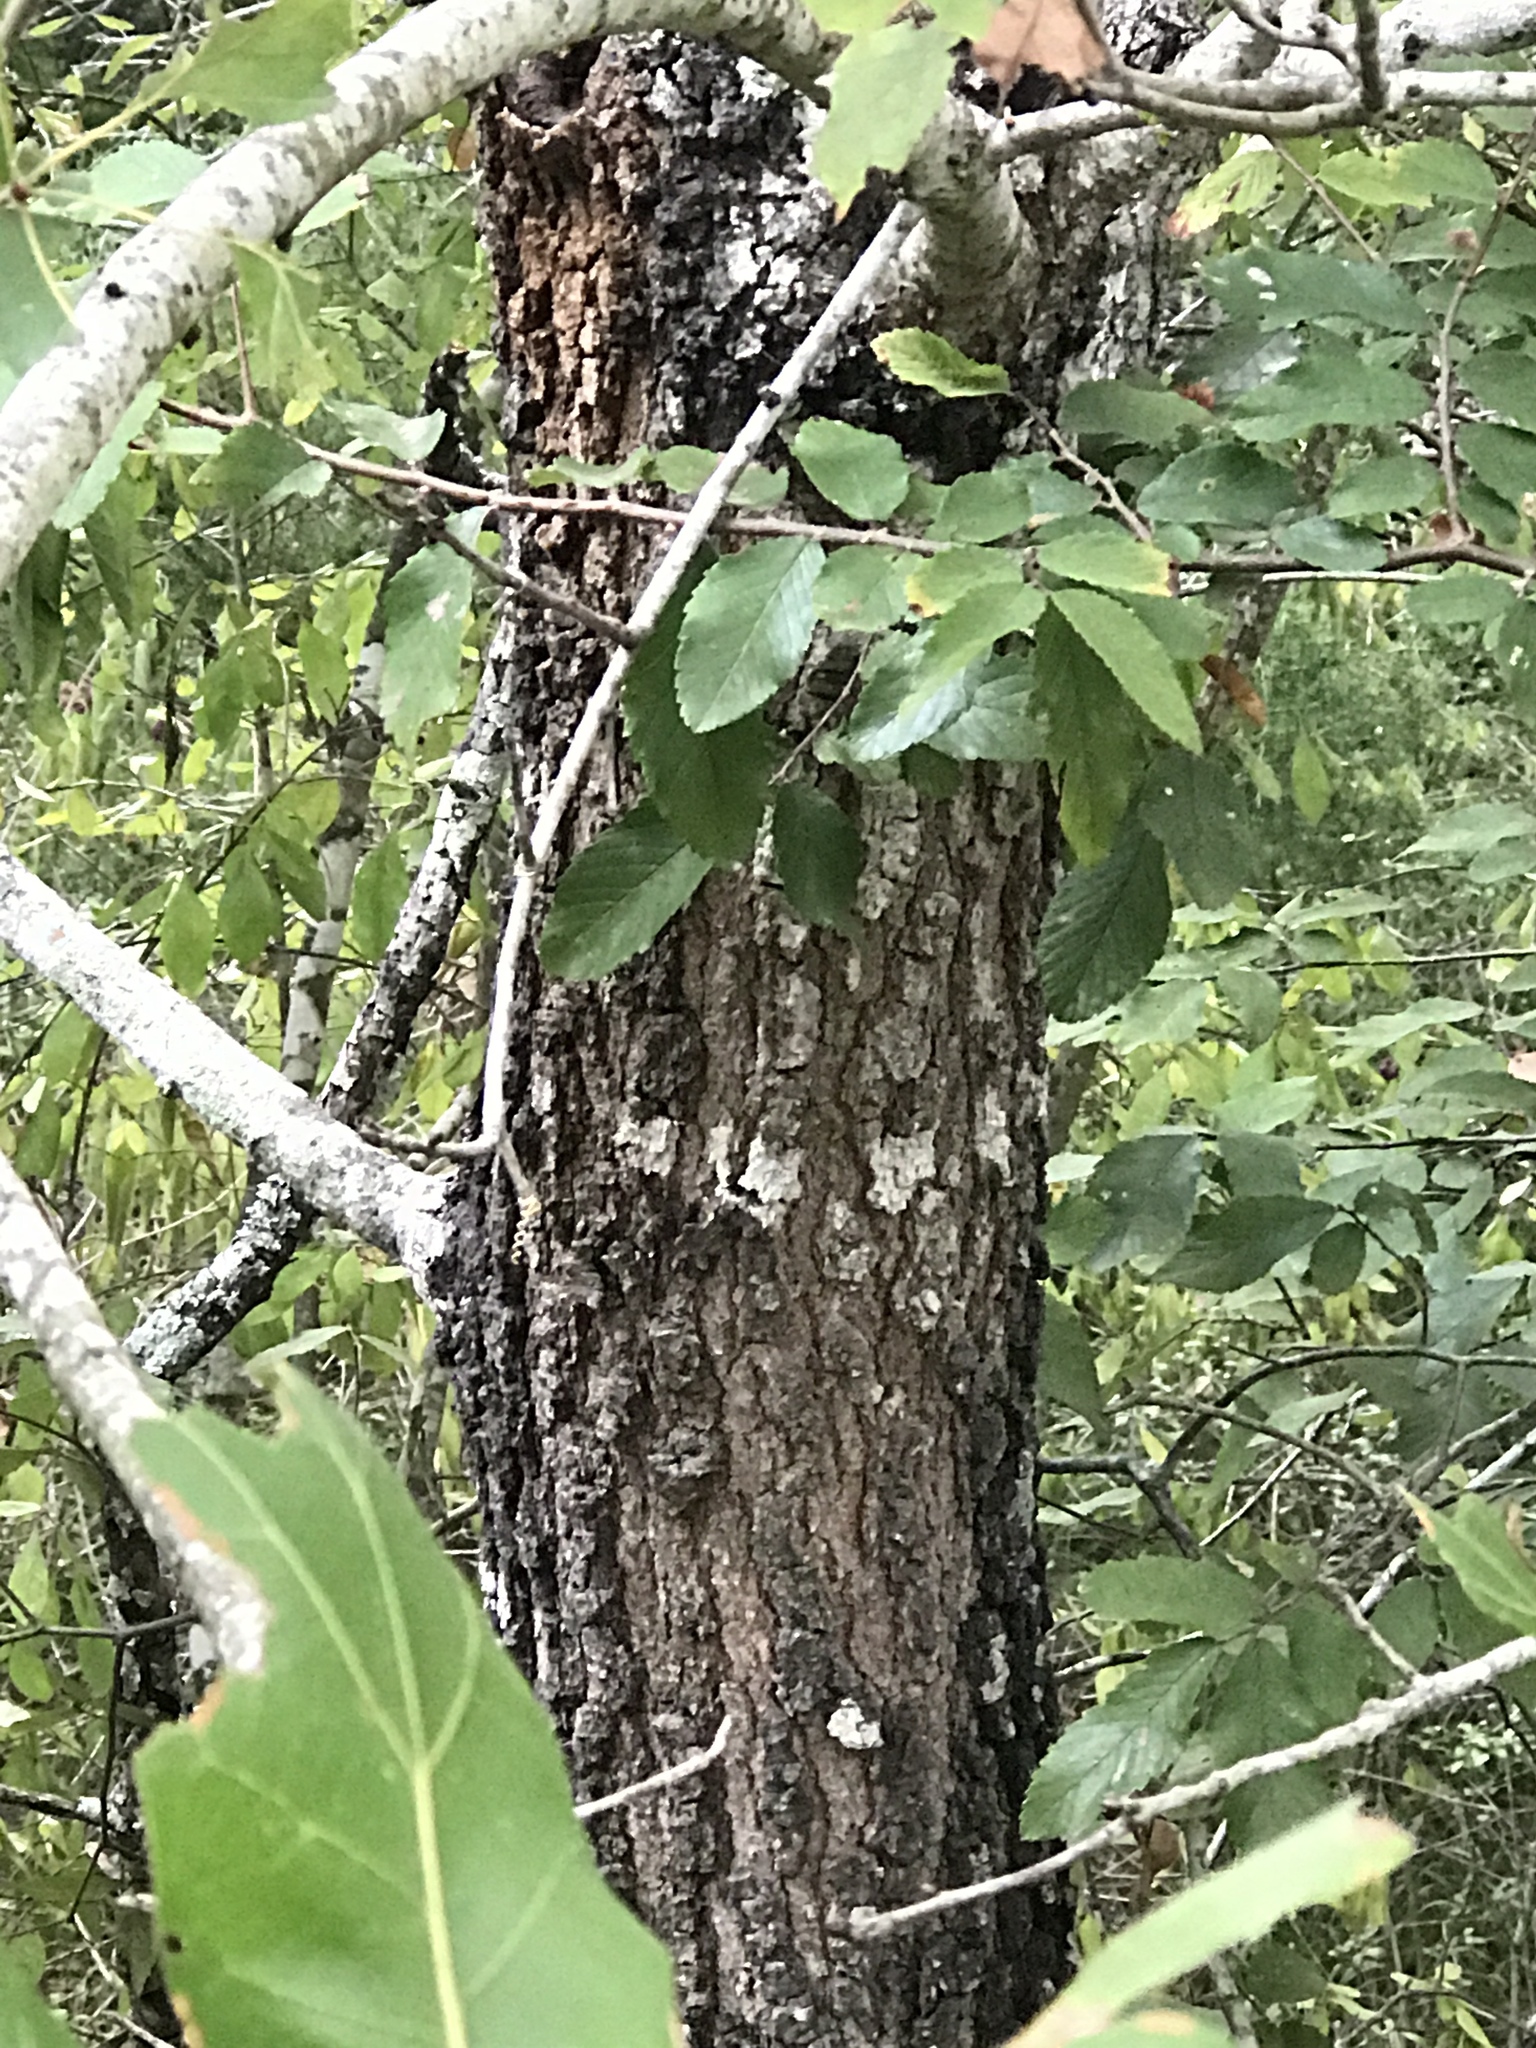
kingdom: Plantae
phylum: Tracheophyta
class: Magnoliopsida
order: Fagales
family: Fagaceae
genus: Quercus
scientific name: Quercus marilandica
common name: Blackjack oak
